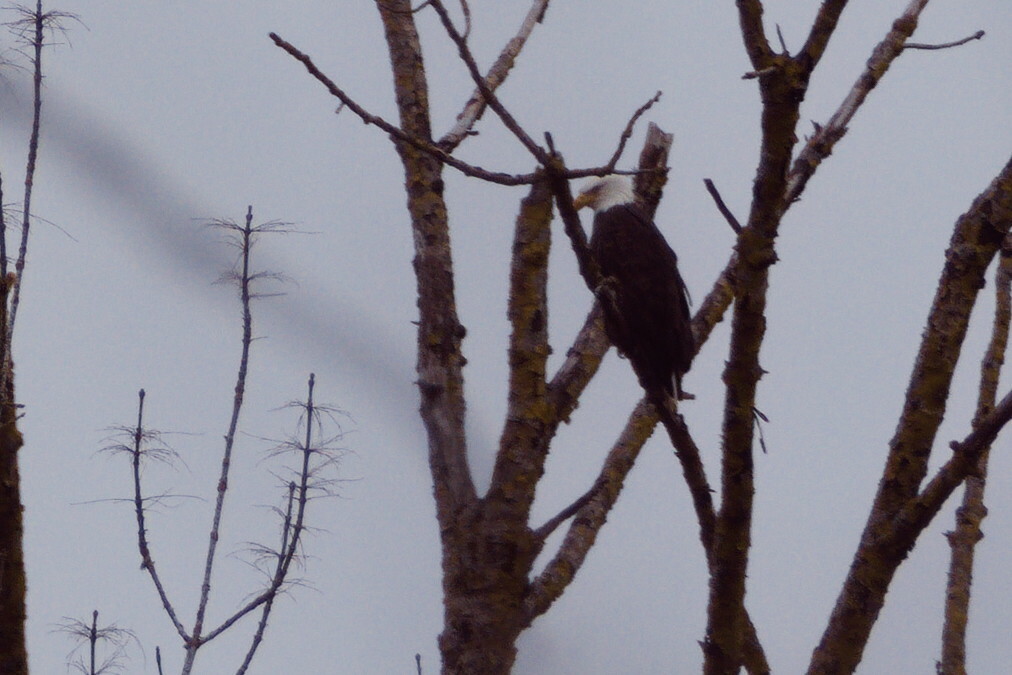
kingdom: Animalia
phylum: Chordata
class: Aves
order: Accipitriformes
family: Accipitridae
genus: Haliaeetus
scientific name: Haliaeetus leucocephalus
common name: Bald eagle
